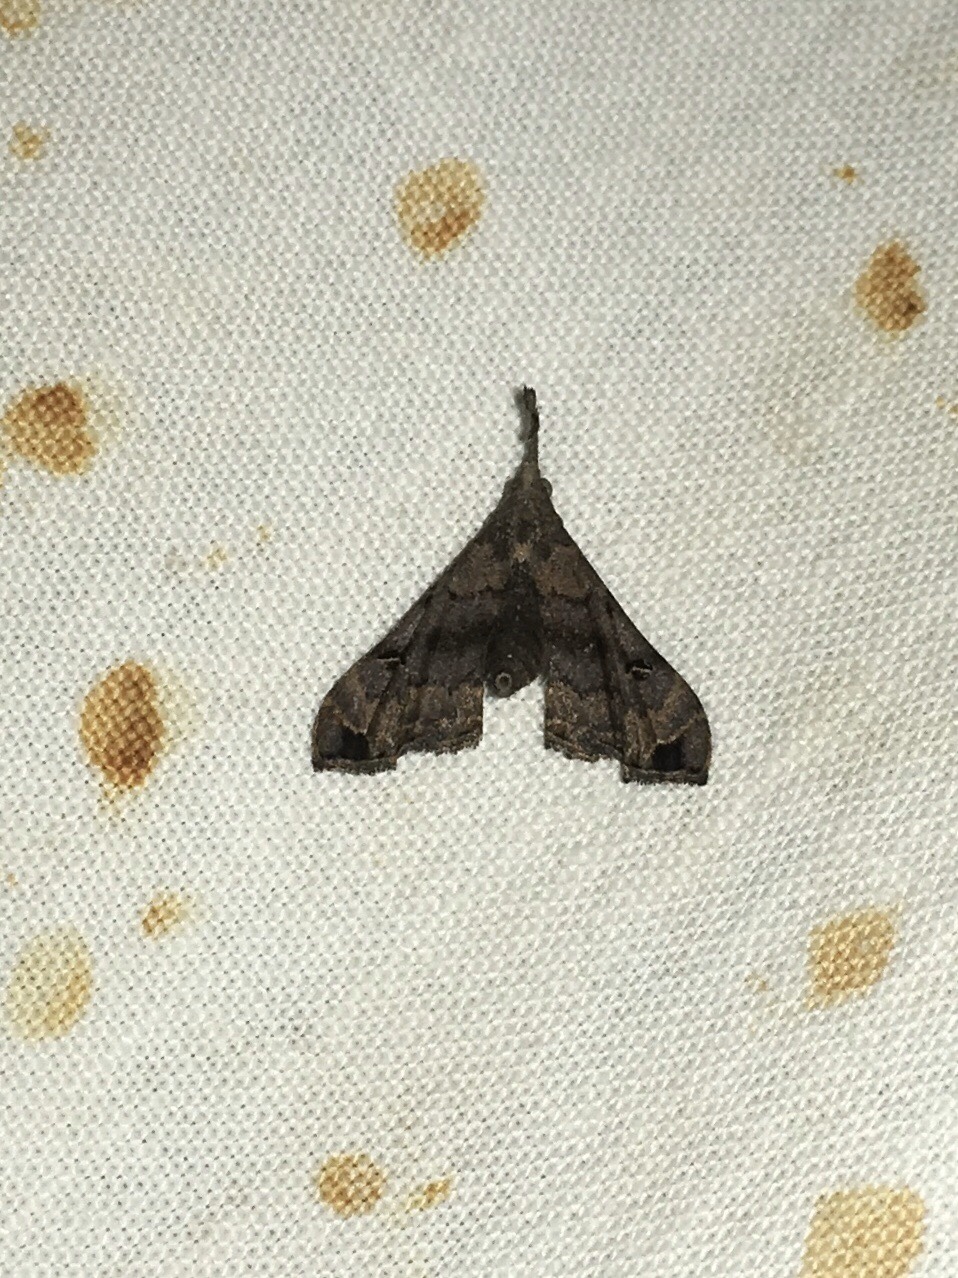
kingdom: Animalia
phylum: Arthropoda
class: Insecta
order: Lepidoptera
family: Erebidae
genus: Palthis
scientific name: Palthis asopialis
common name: Faint-spotted palthis moth
